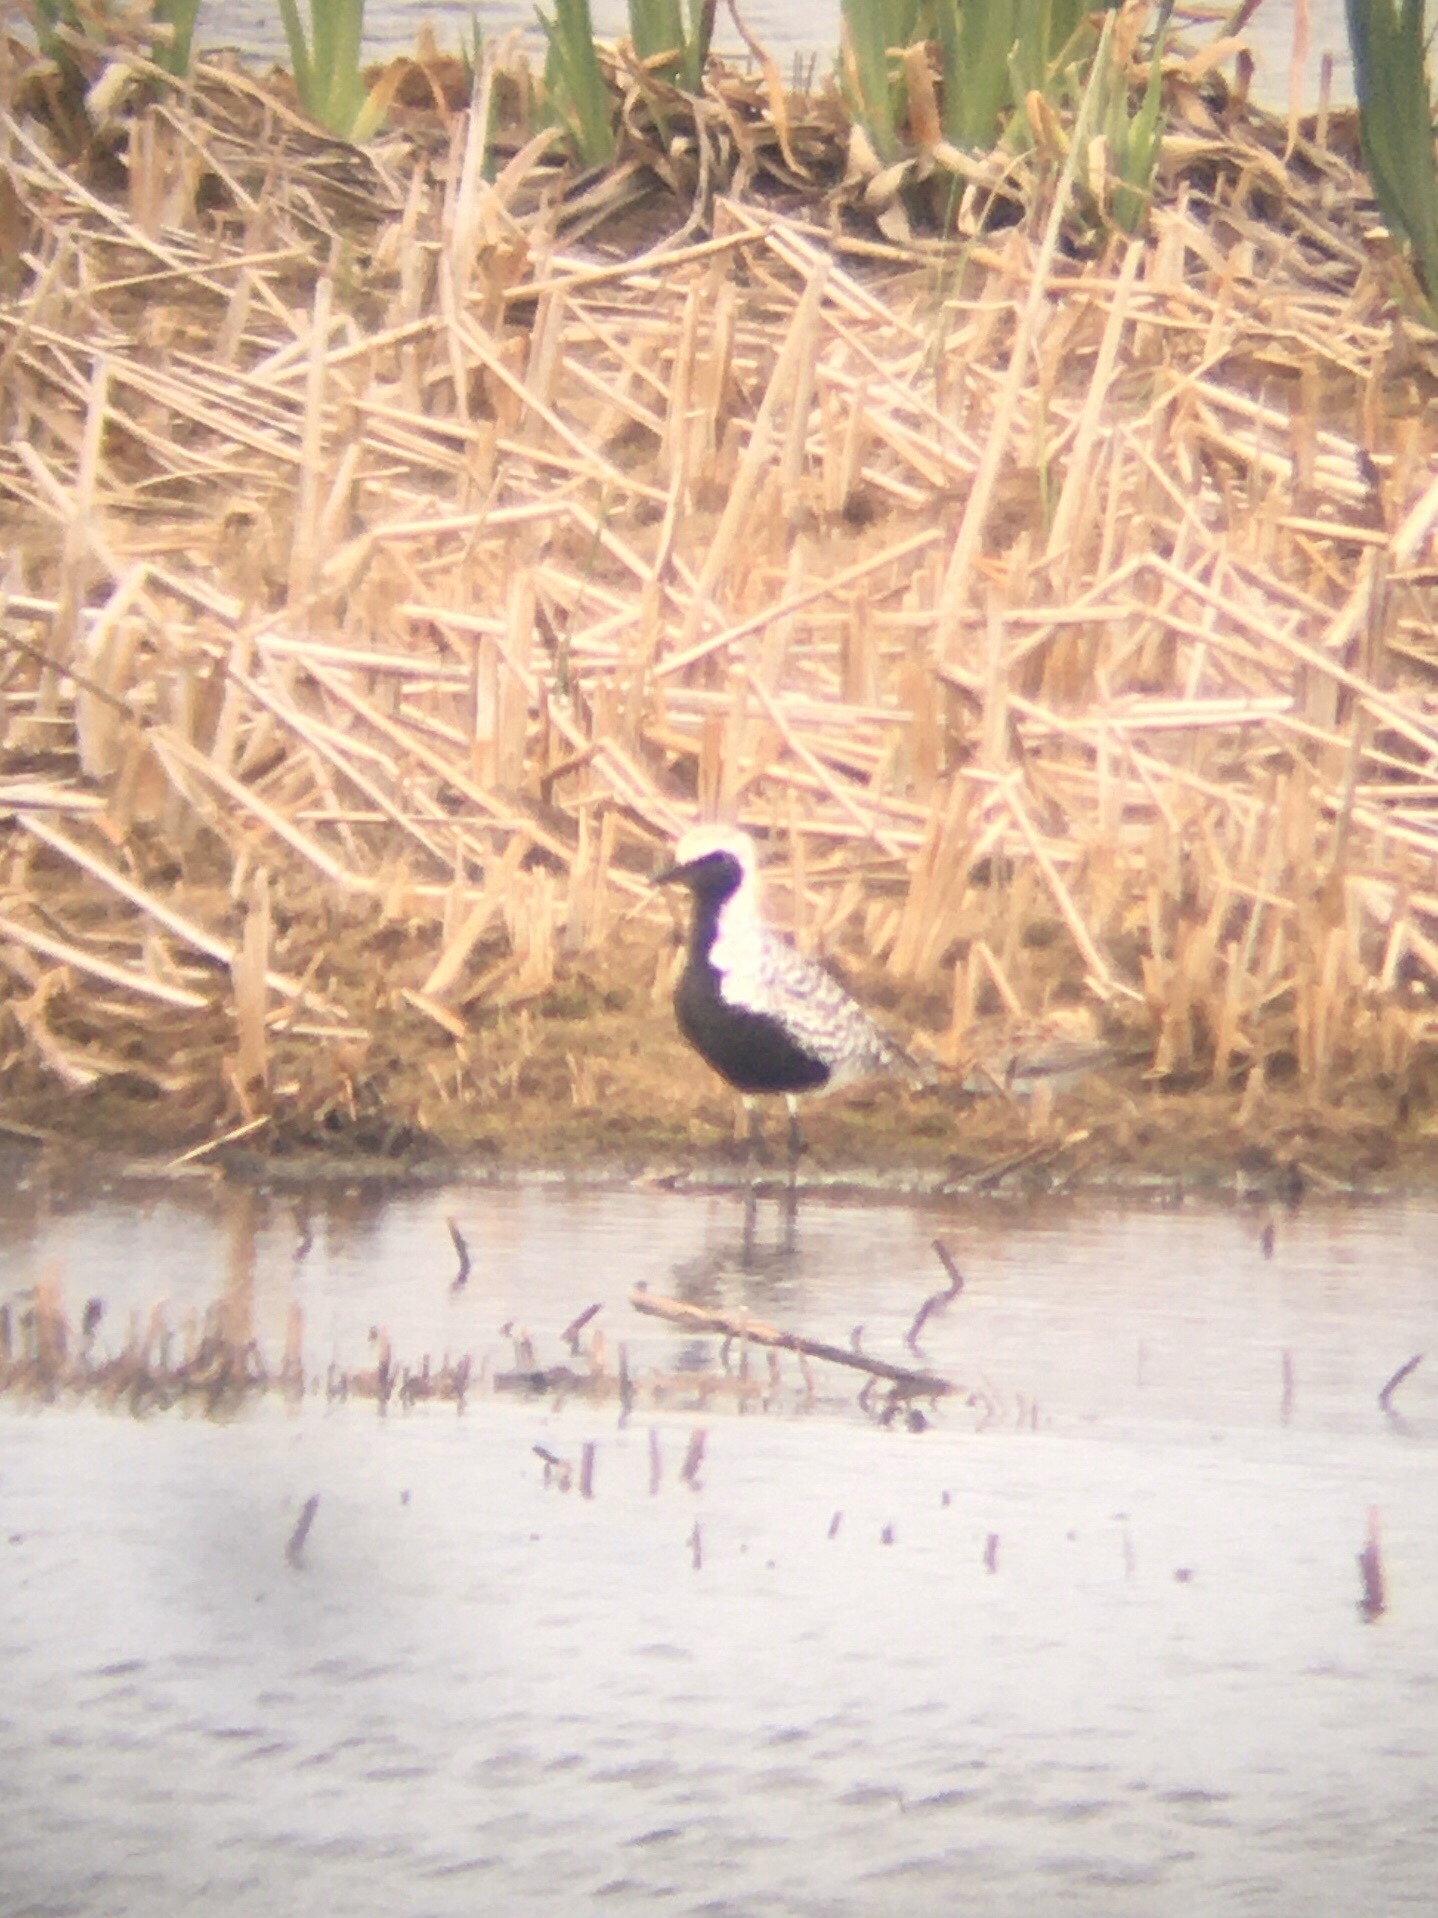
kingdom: Animalia
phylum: Chordata
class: Aves
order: Charadriiformes
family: Charadriidae
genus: Pluvialis
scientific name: Pluvialis squatarola
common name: Grey plover
